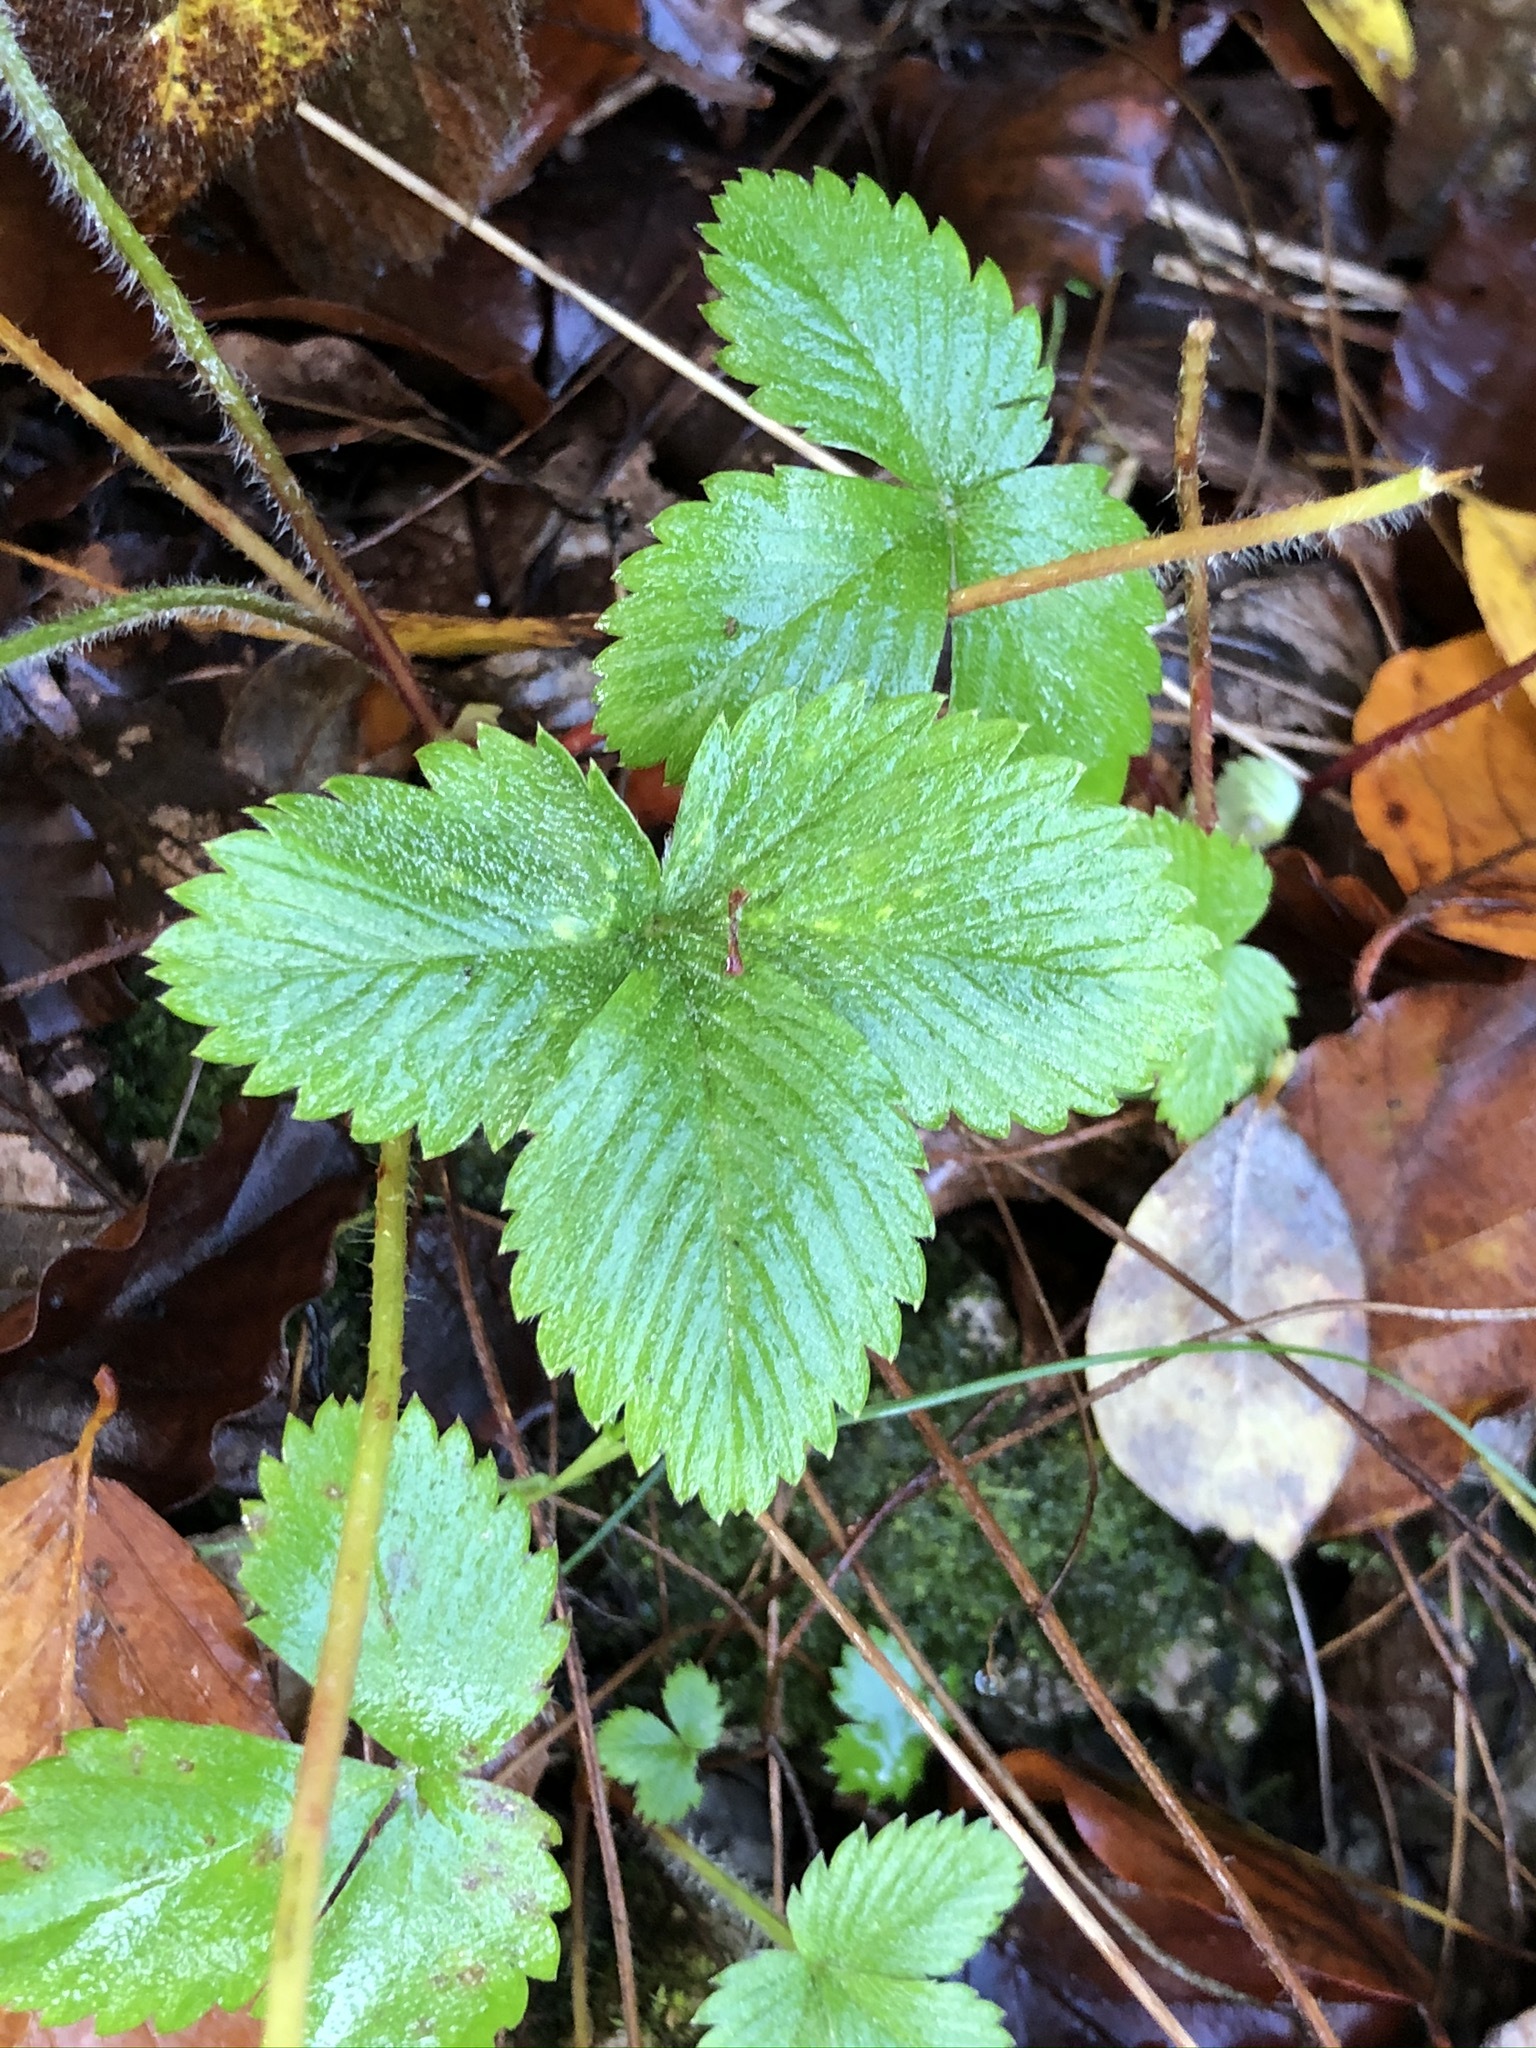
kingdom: Plantae
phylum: Tracheophyta
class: Magnoliopsida
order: Rosales
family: Rosaceae
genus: Fragaria
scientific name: Fragaria vesca
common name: Wild strawberry
